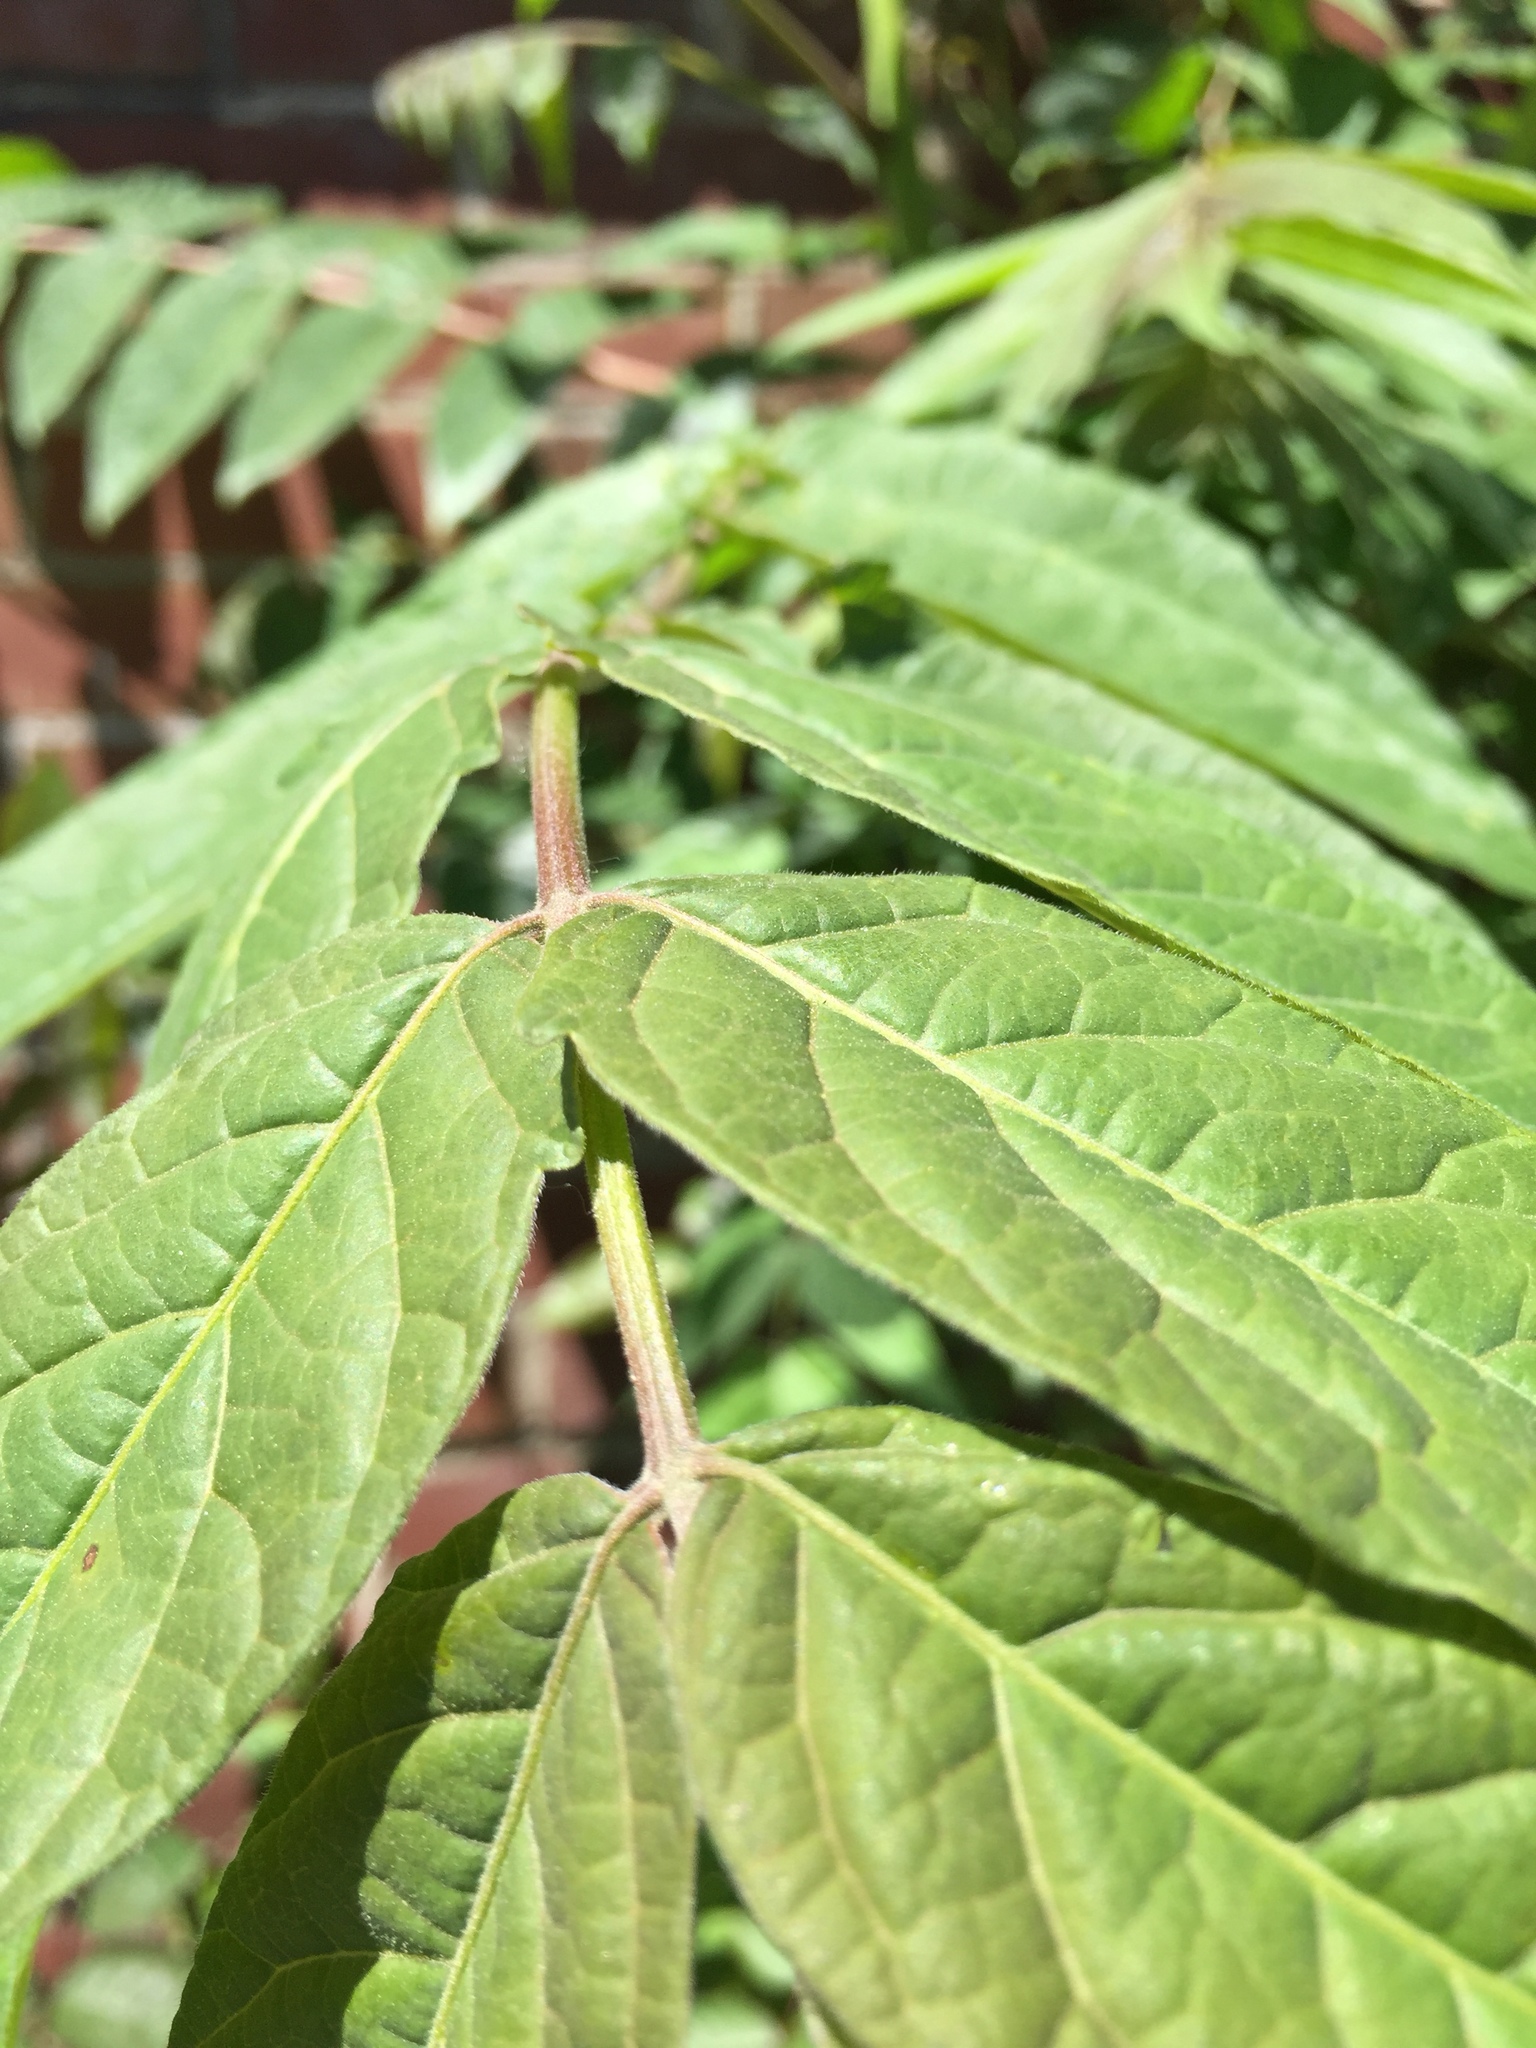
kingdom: Plantae
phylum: Tracheophyta
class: Magnoliopsida
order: Sapindales
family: Simaroubaceae
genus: Ailanthus
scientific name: Ailanthus altissima
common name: Tree-of-heaven
